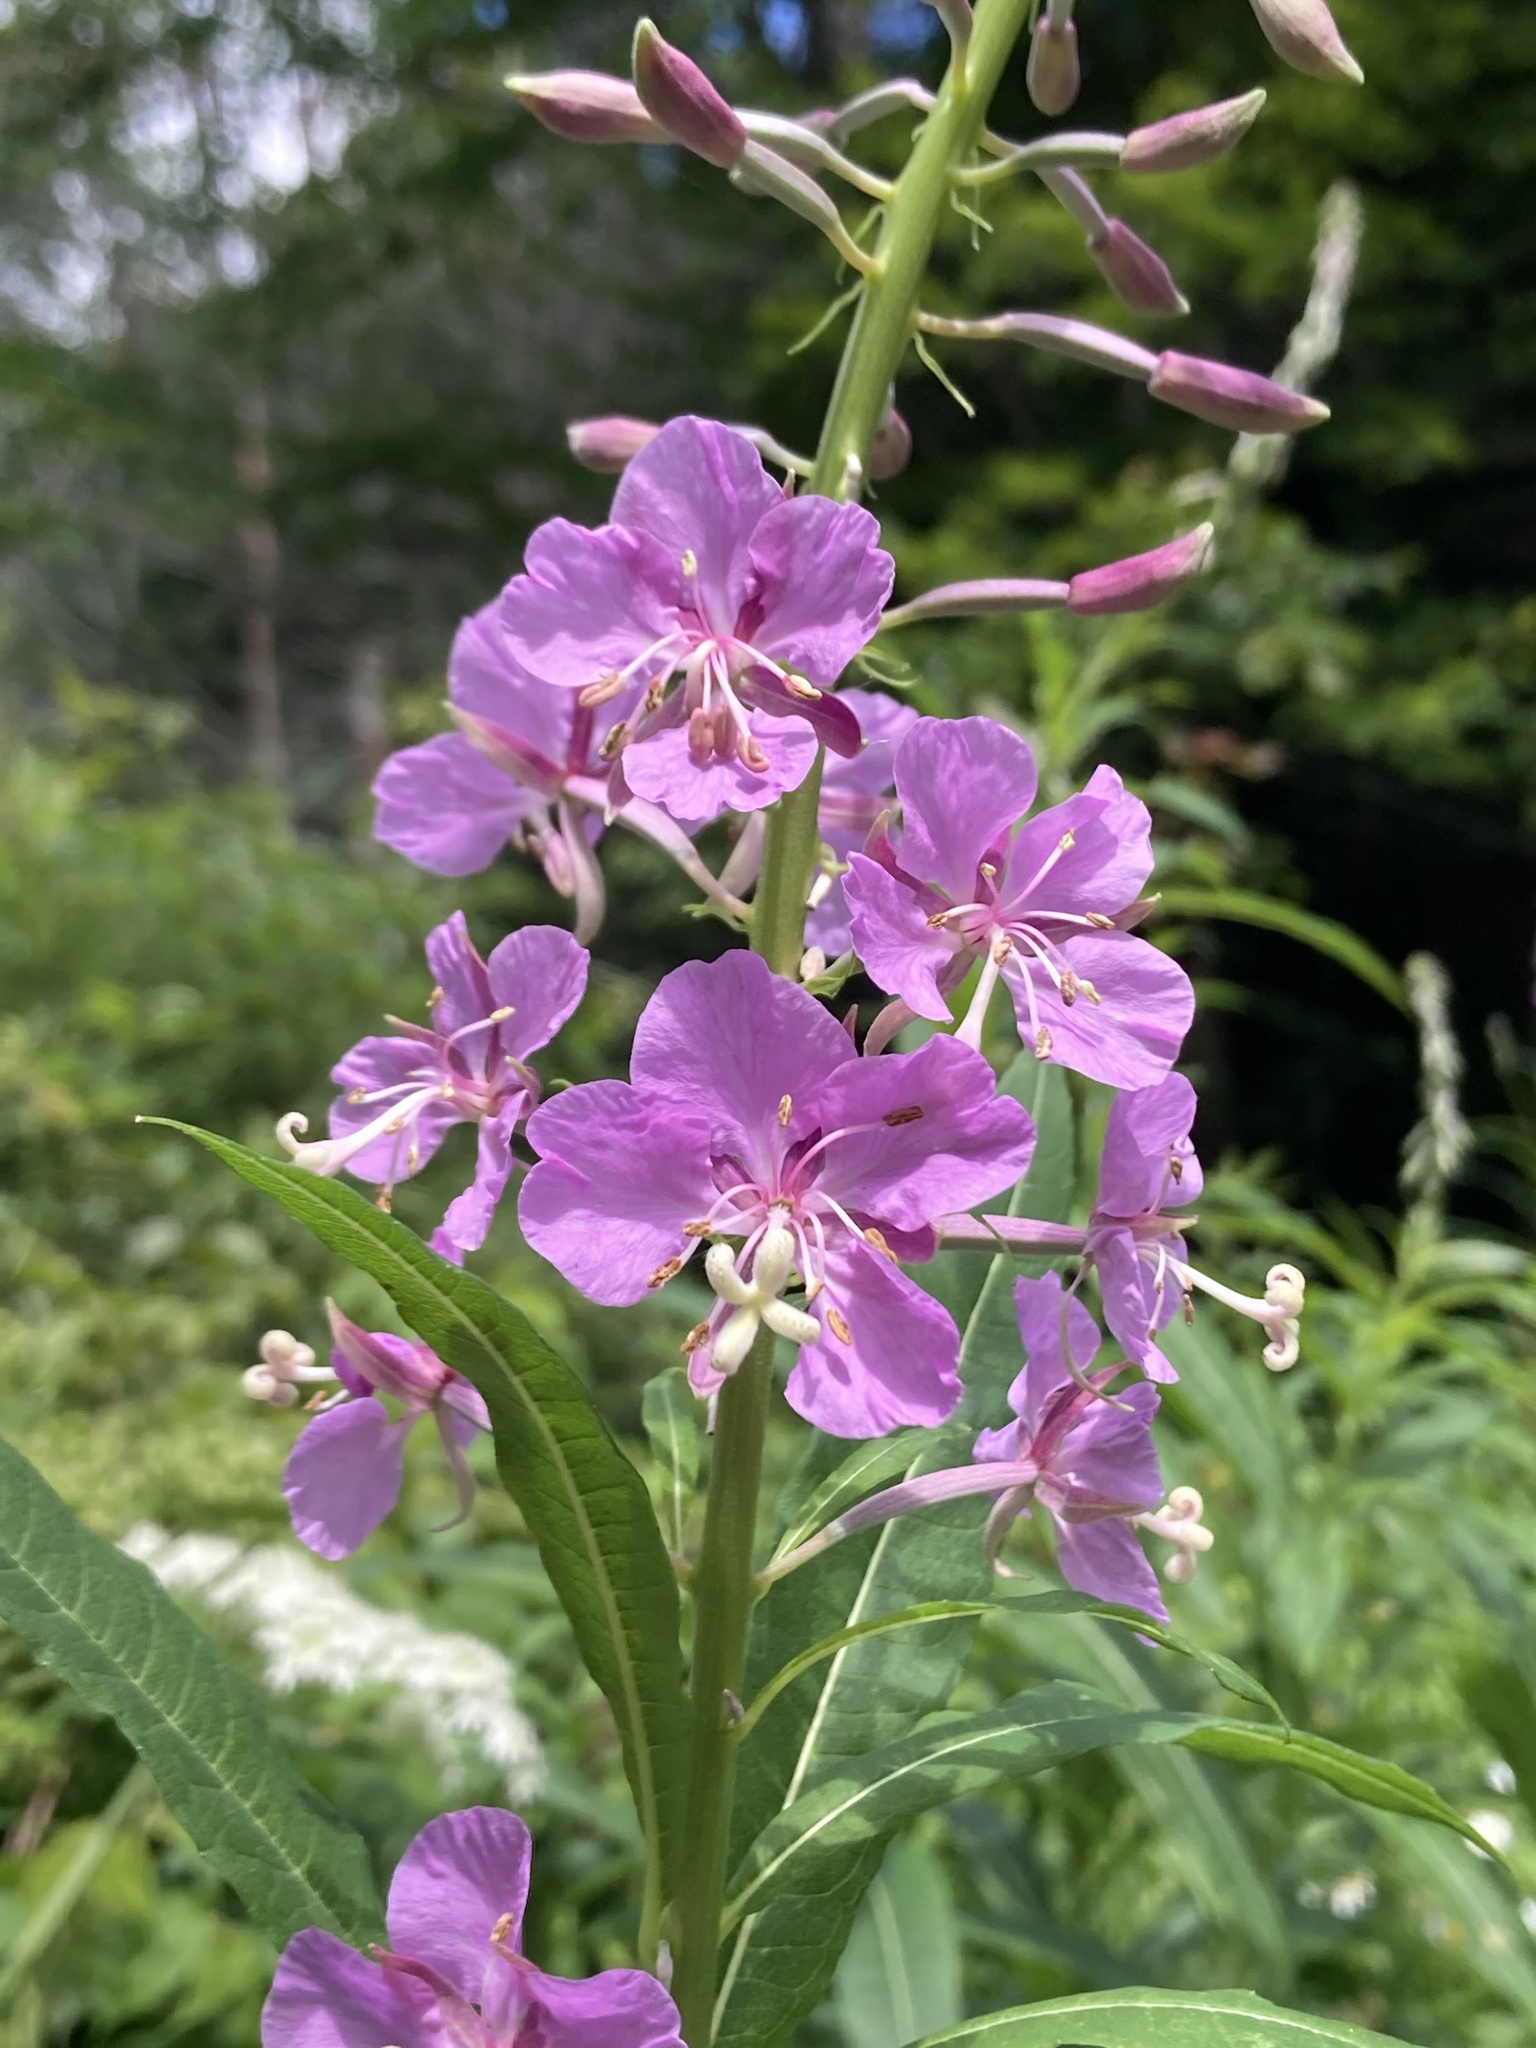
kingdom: Plantae
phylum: Tracheophyta
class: Magnoliopsida
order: Myrtales
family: Onagraceae
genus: Chamaenerion
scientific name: Chamaenerion angustifolium
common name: Fireweed
